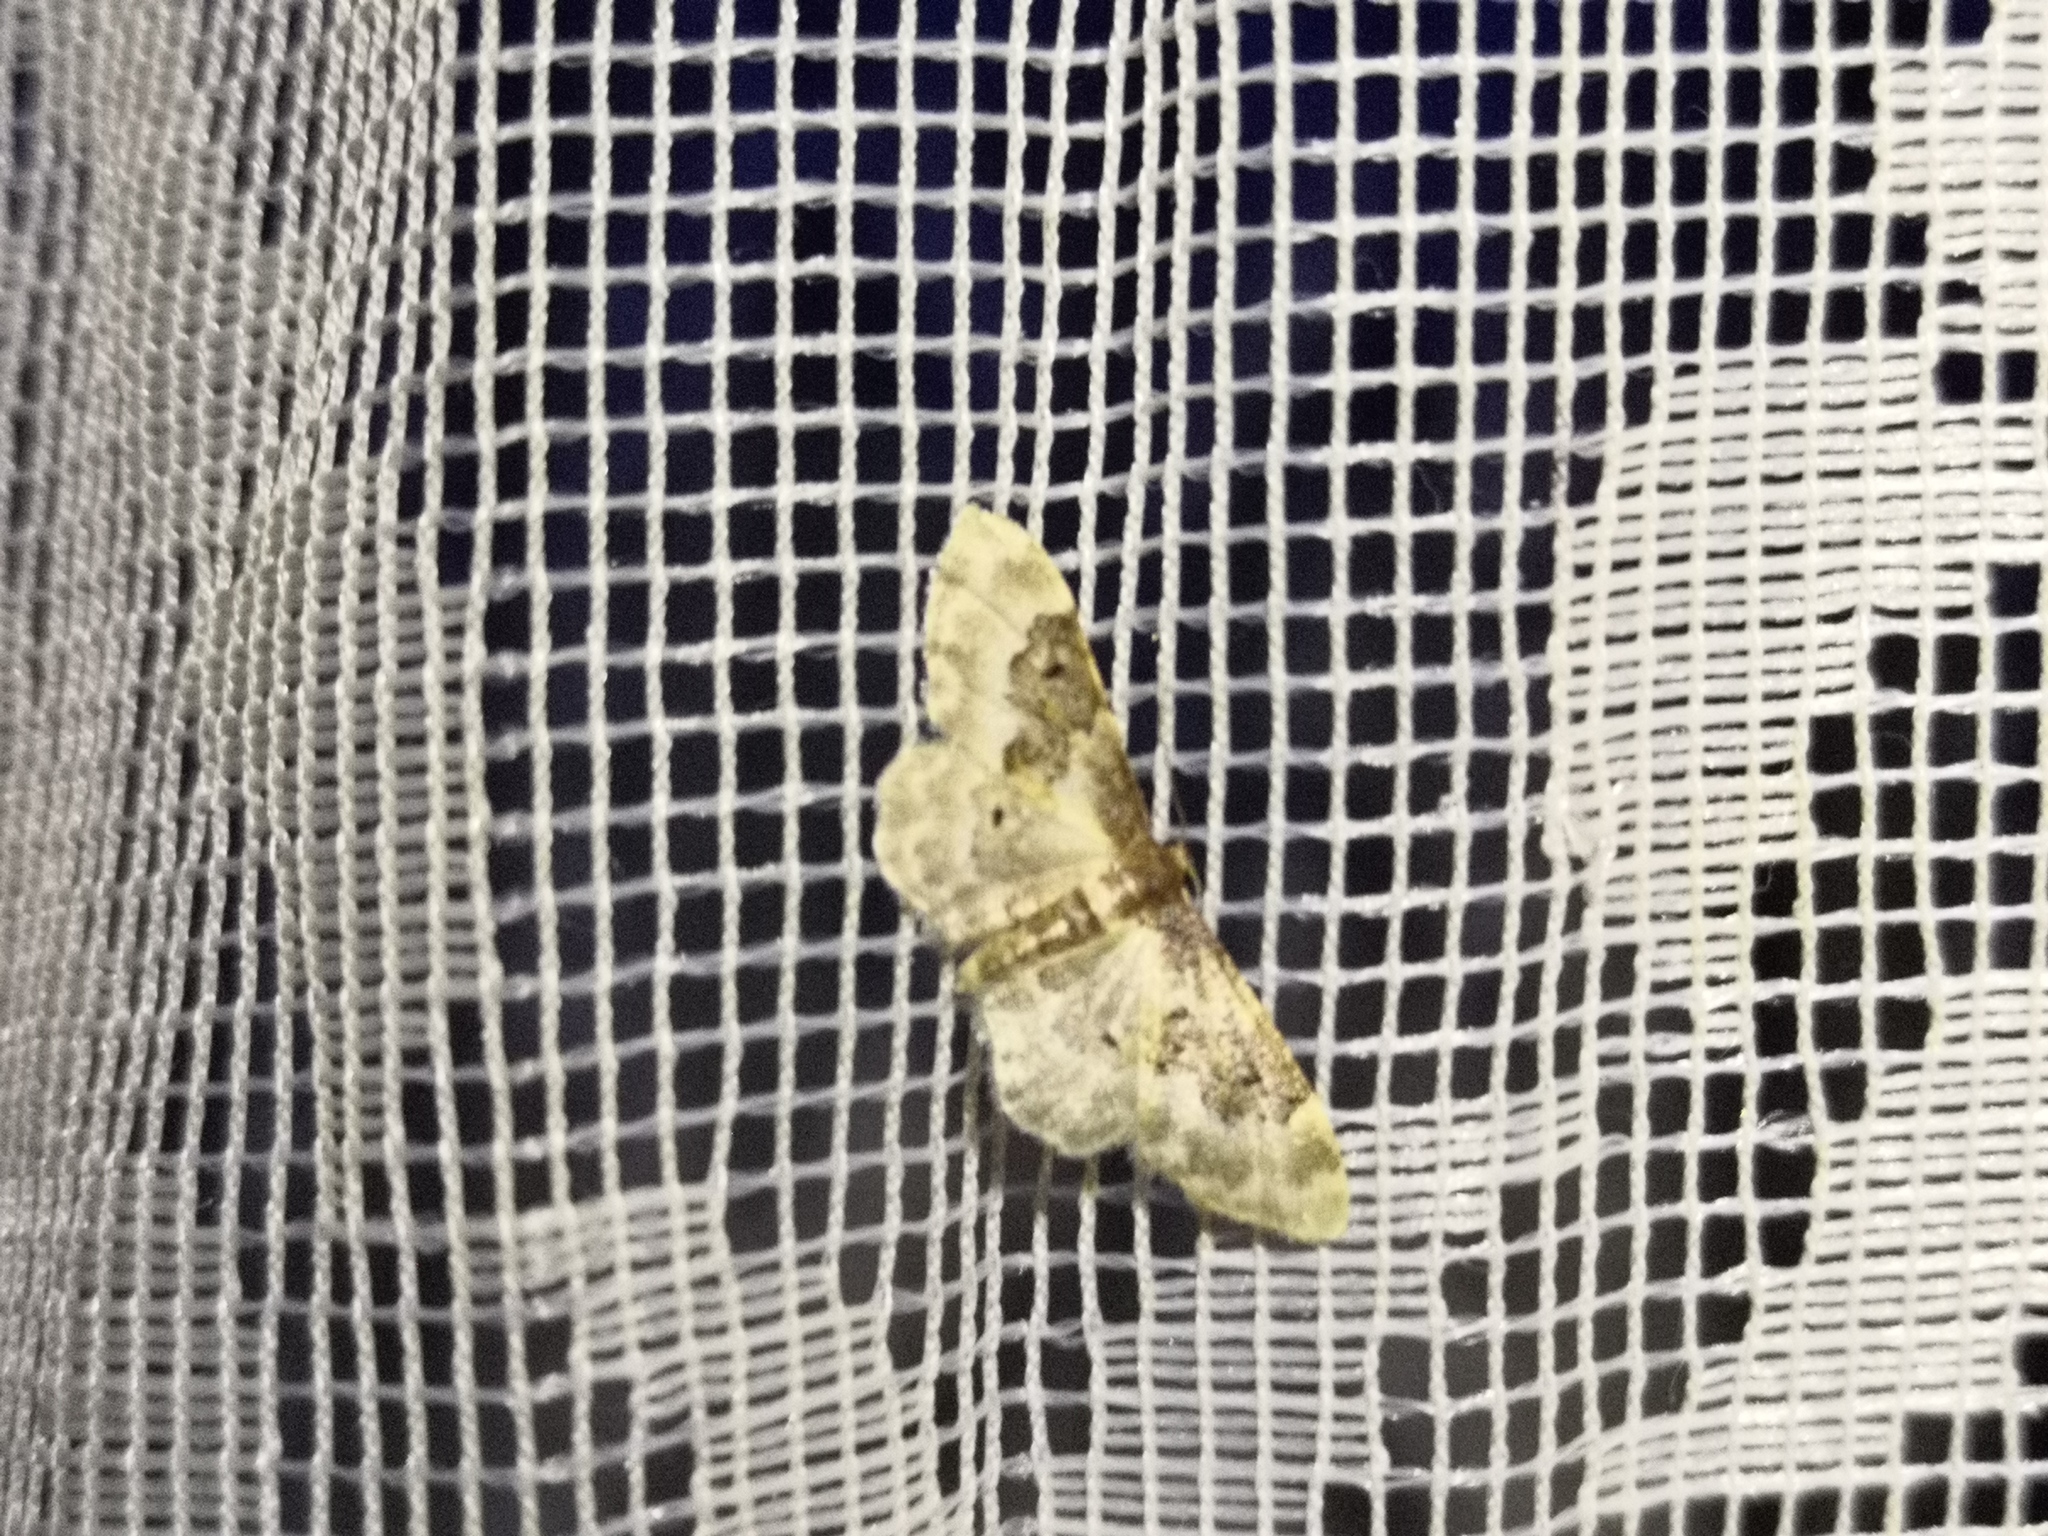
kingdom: Animalia
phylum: Arthropoda
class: Insecta
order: Lepidoptera
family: Geometridae
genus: Idaea
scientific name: Idaea rusticata
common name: Least carpet
